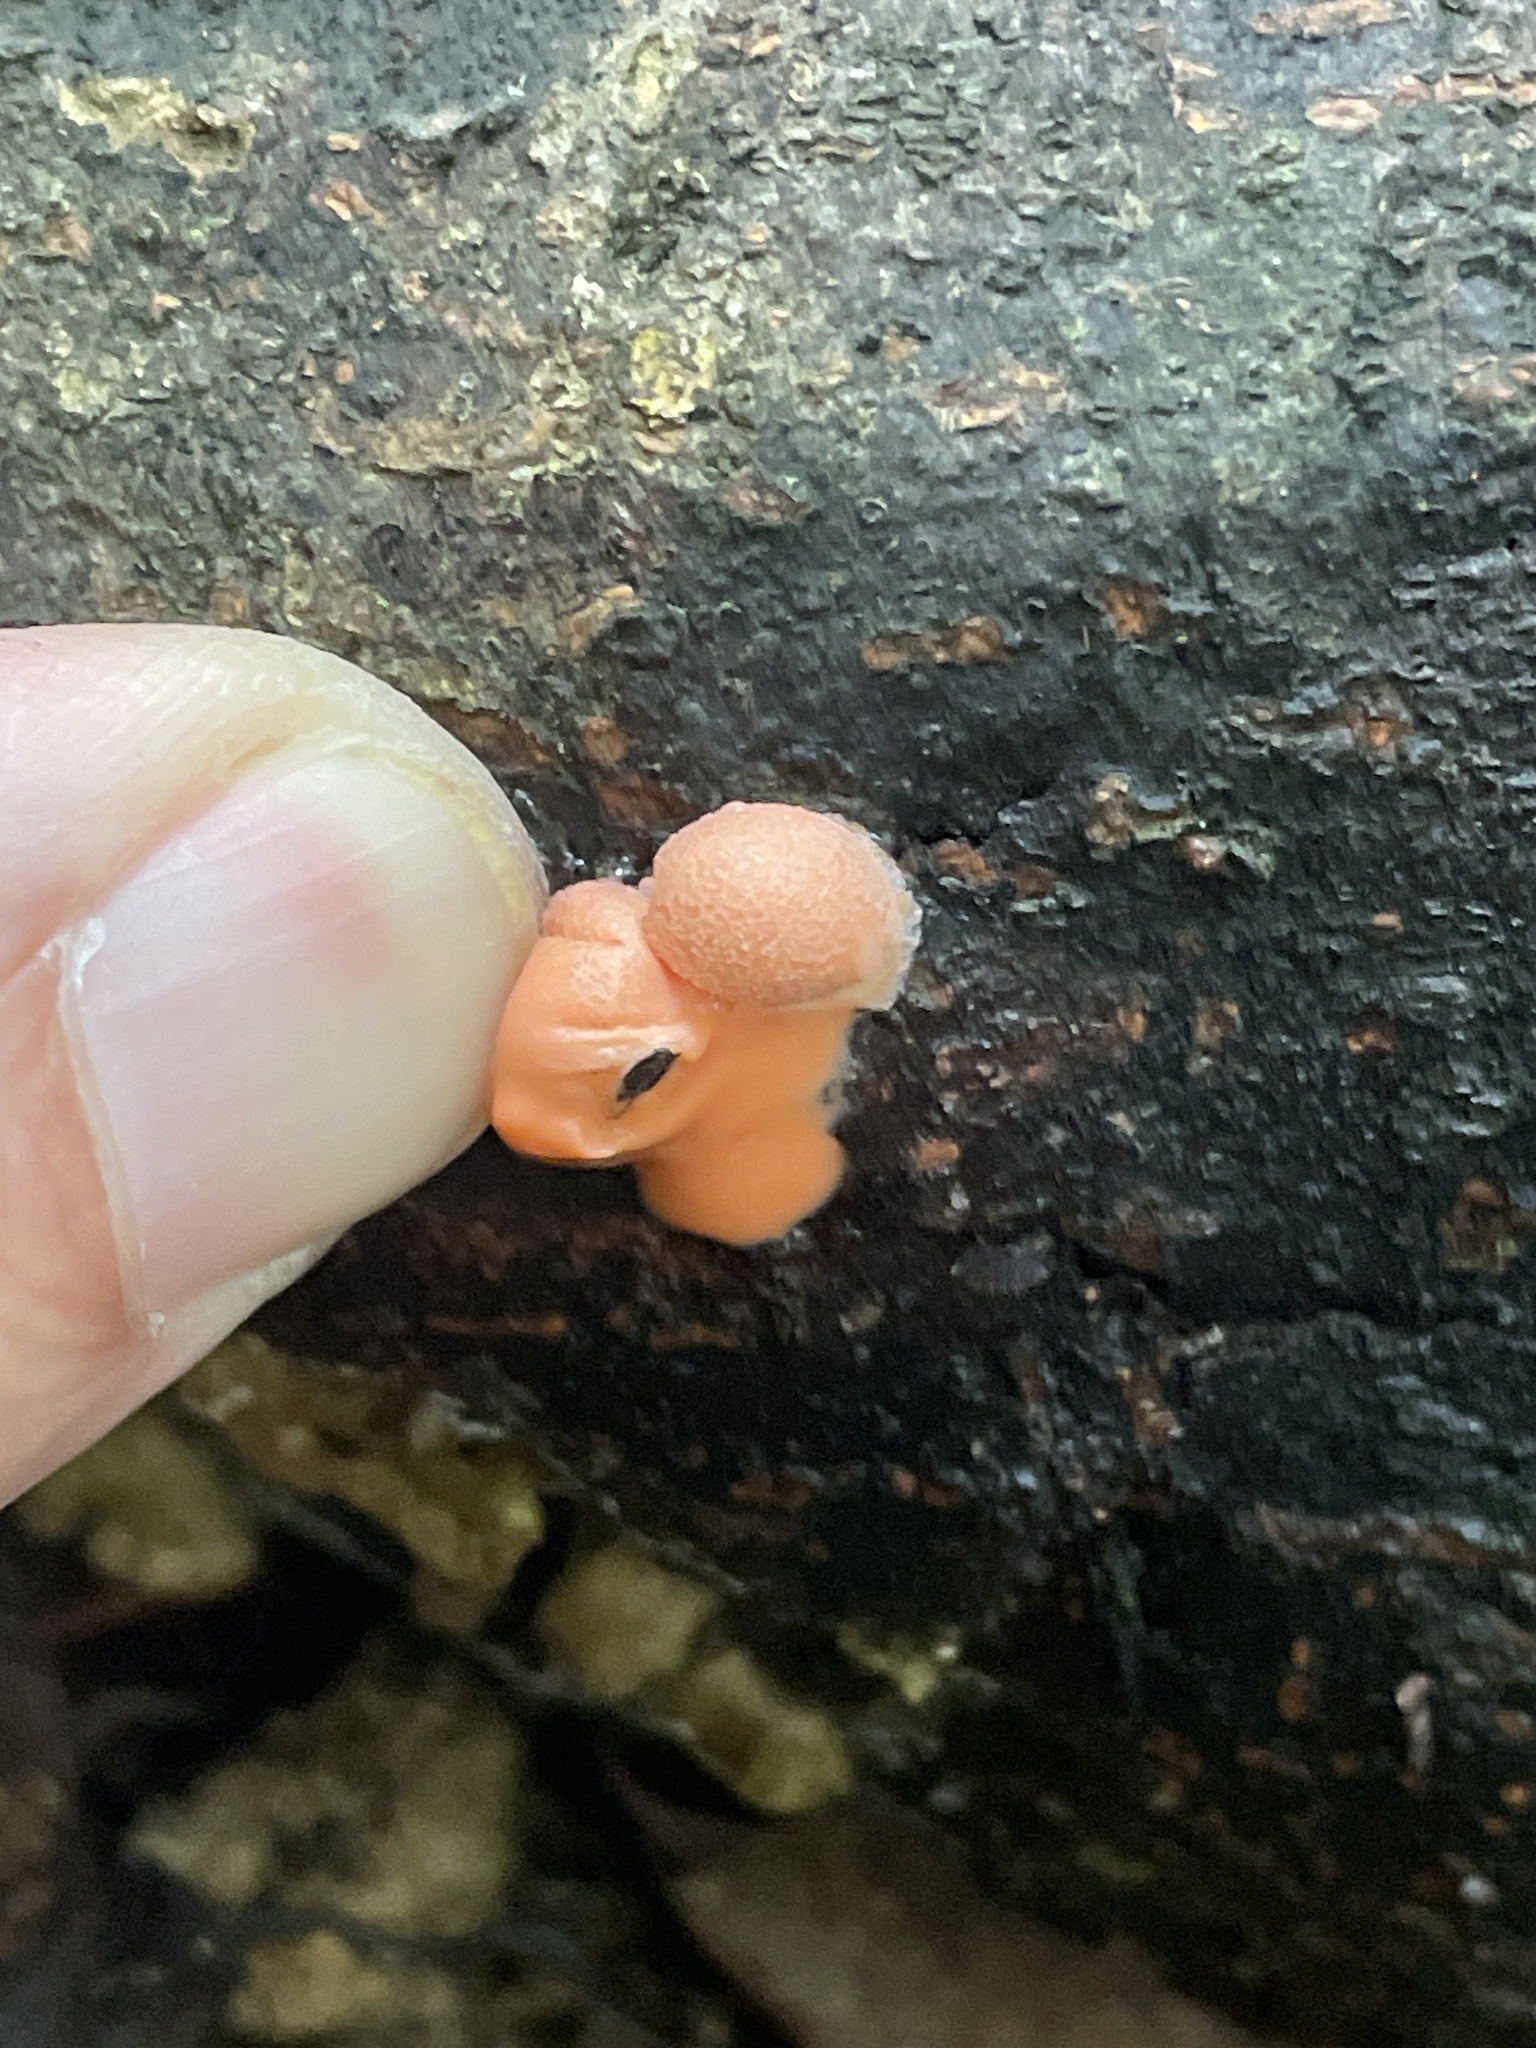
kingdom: Protozoa
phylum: Mycetozoa
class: Myxomycetes
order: Cribrariales
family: Tubiferaceae
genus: Lycogala
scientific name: Lycogala epidendrum
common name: Wolf's milk
